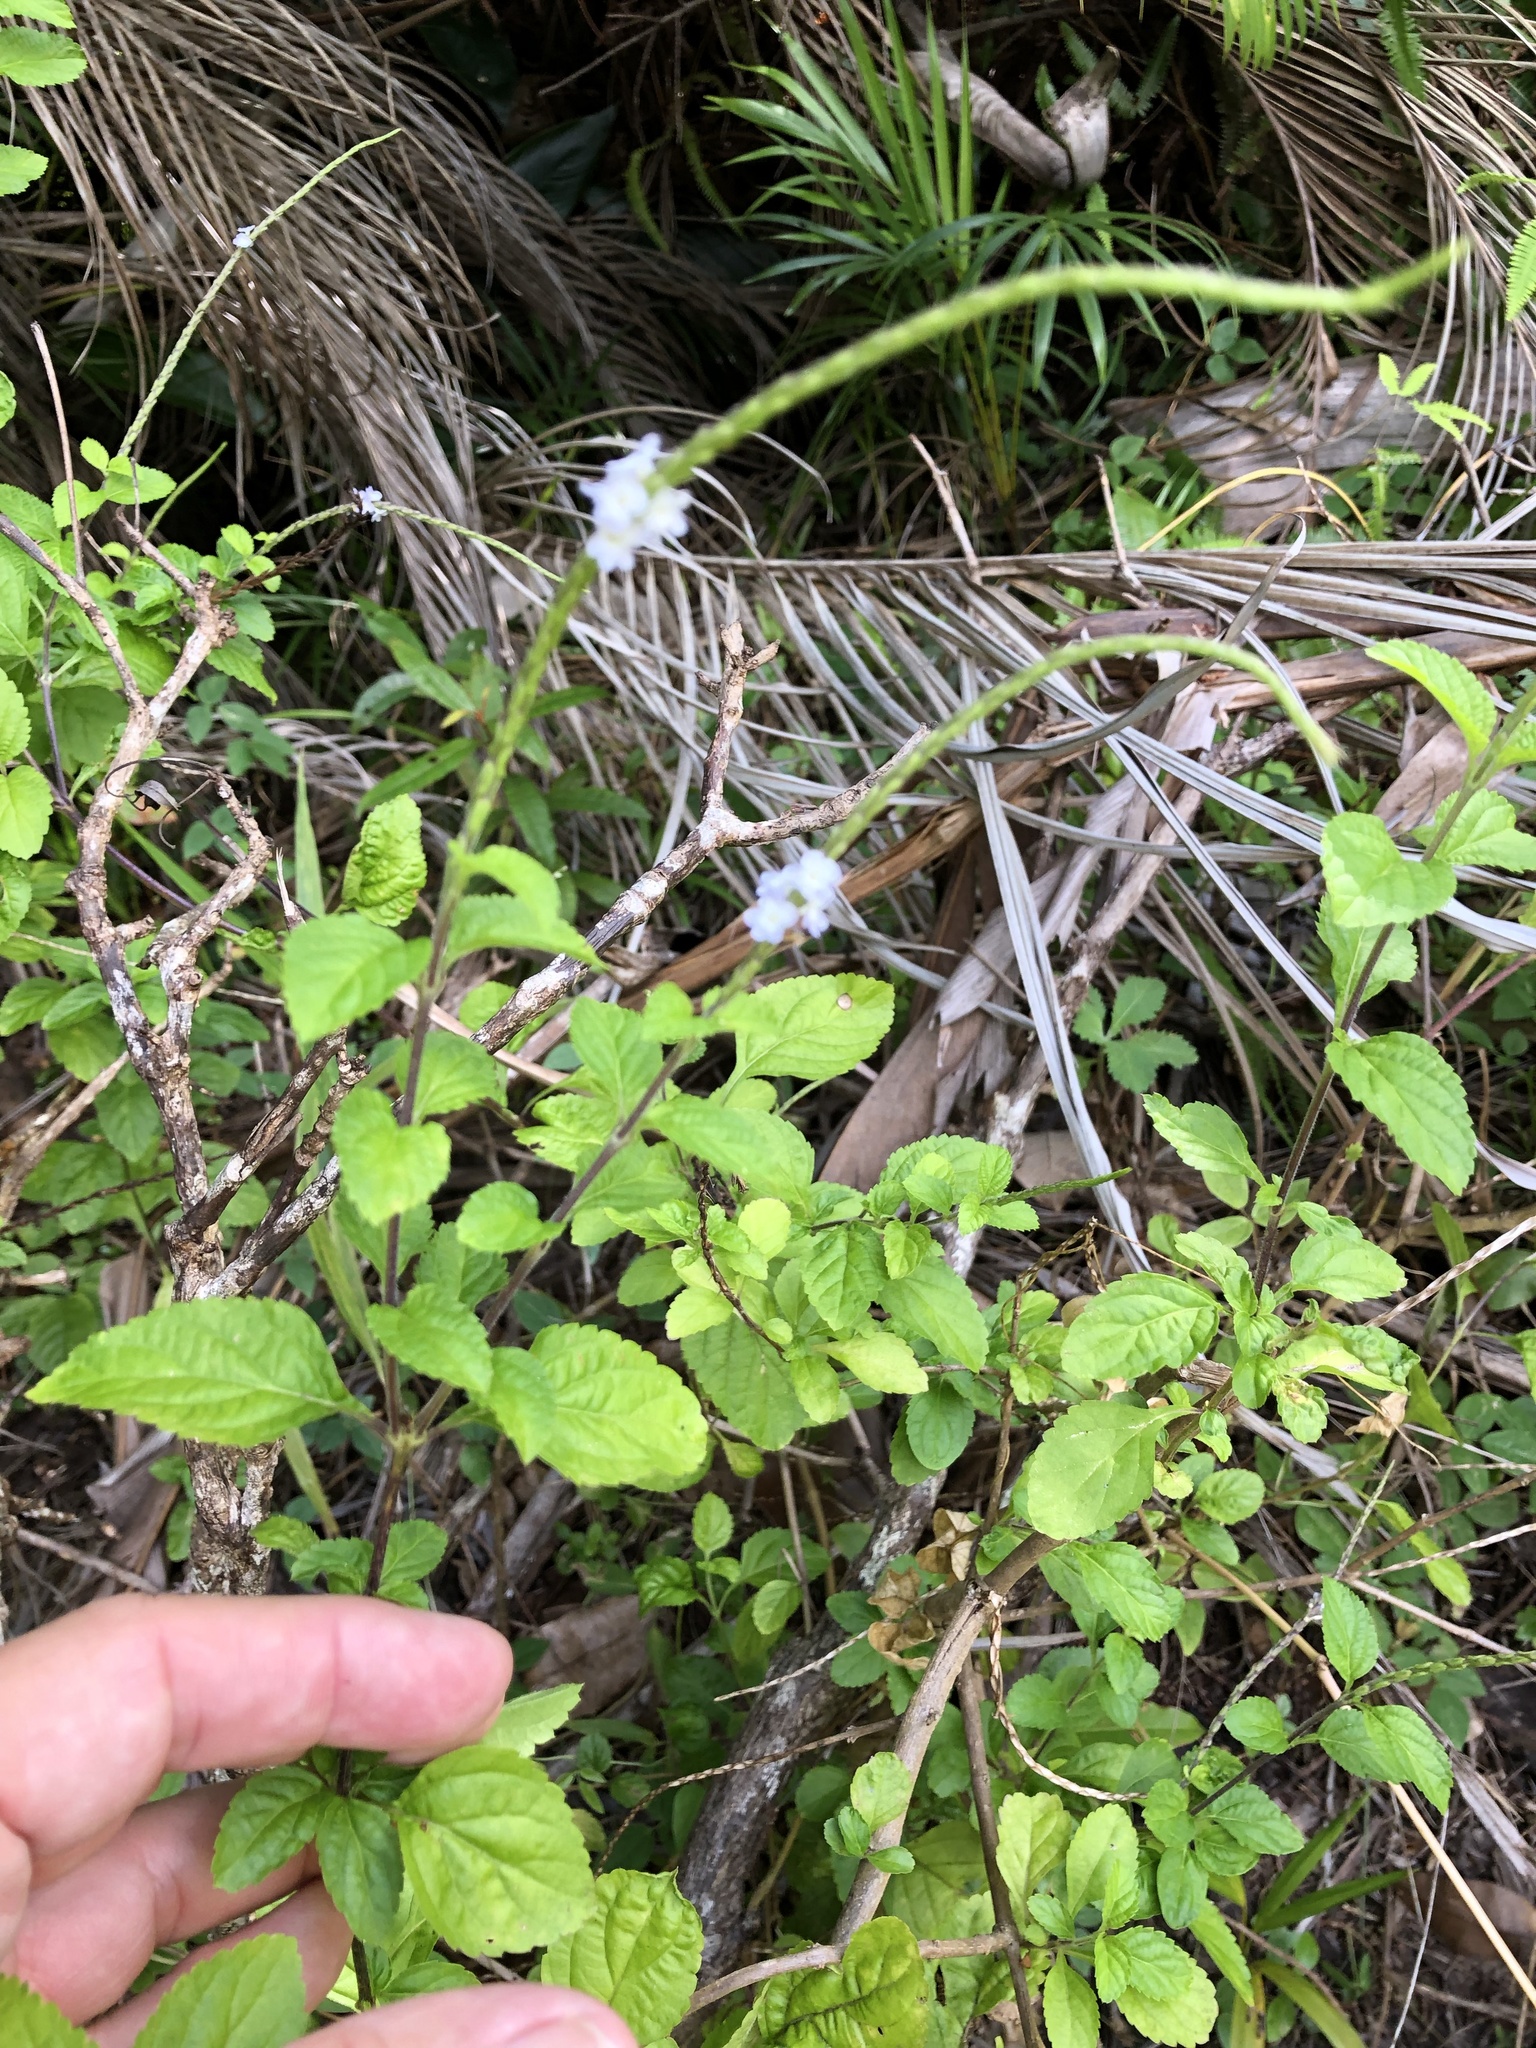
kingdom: Plantae
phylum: Tracheophyta
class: Magnoliopsida
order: Lamiales
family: Verbenaceae
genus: Stachytarpheta
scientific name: Stachytarpheta cayennensis
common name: Cayenne porterweed
